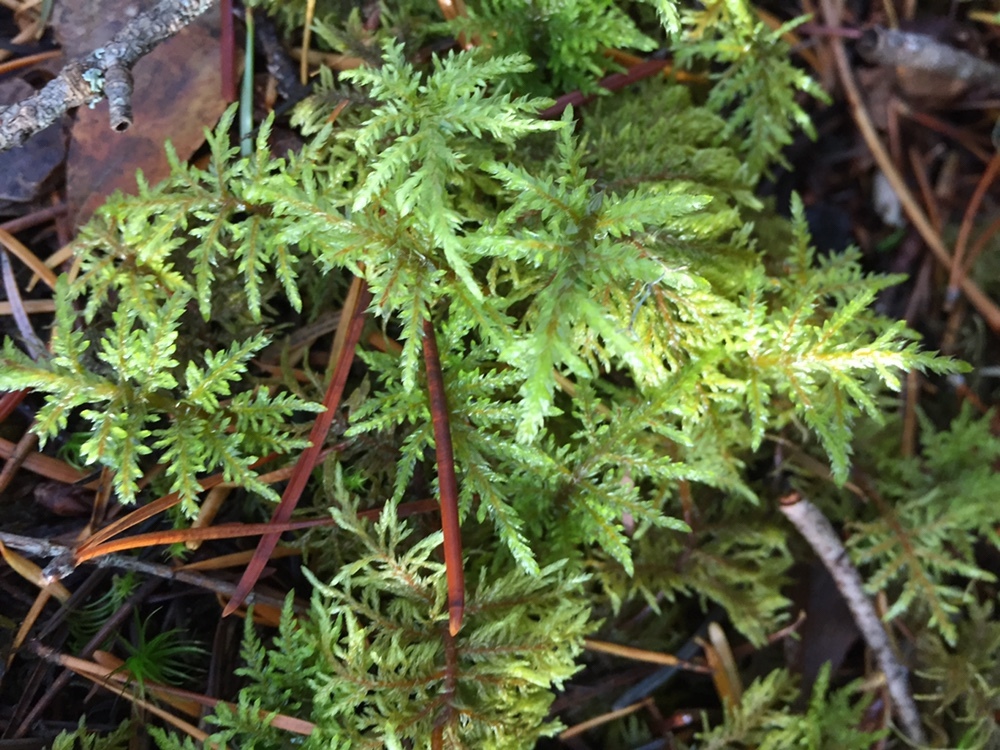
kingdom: Plantae
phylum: Bryophyta
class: Bryopsida
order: Hypnales
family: Hylocomiaceae
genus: Hylocomium
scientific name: Hylocomium splendens
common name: Stairstep moss
